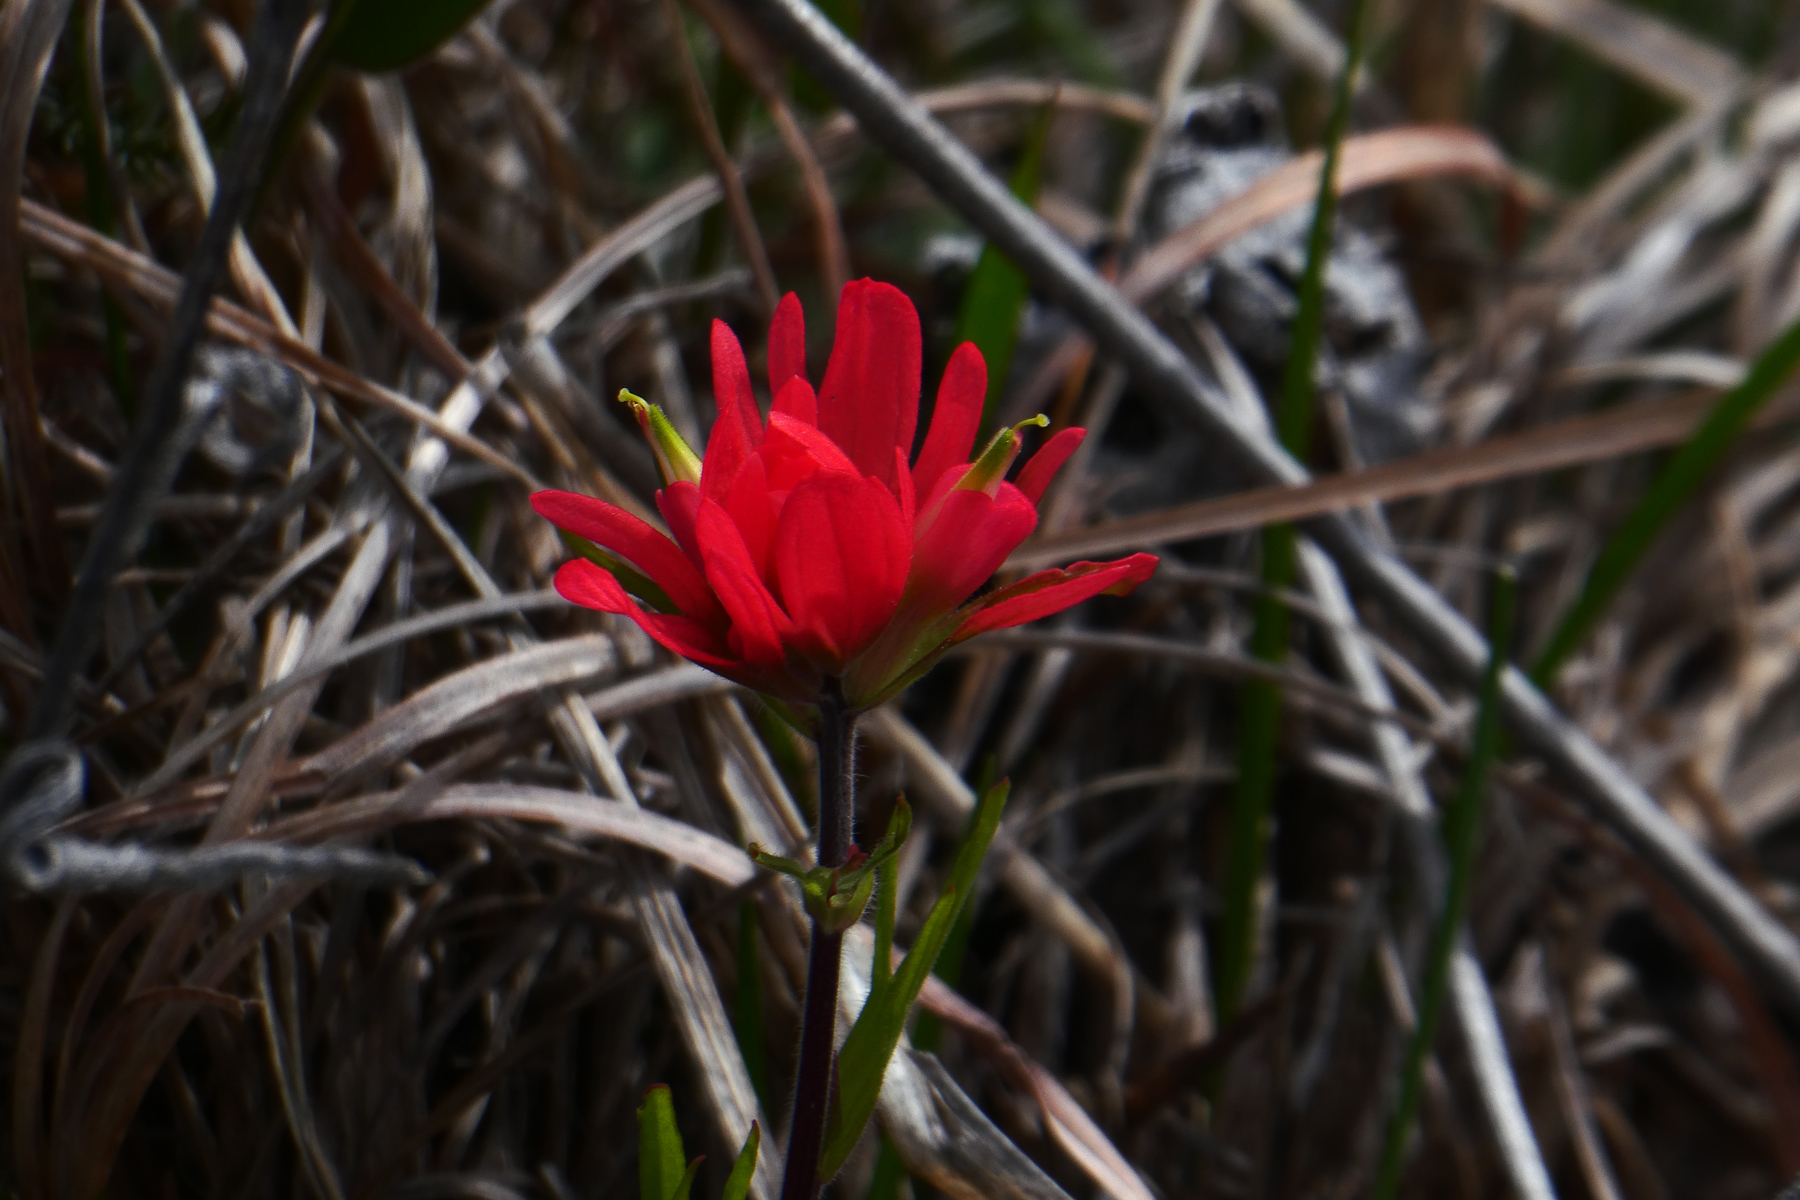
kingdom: Plantae
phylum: Tracheophyta
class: Magnoliopsida
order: Lamiales
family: Orobanchaceae
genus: Castilleja
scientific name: Castilleja coccinea
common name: Scarlet paintbrush
